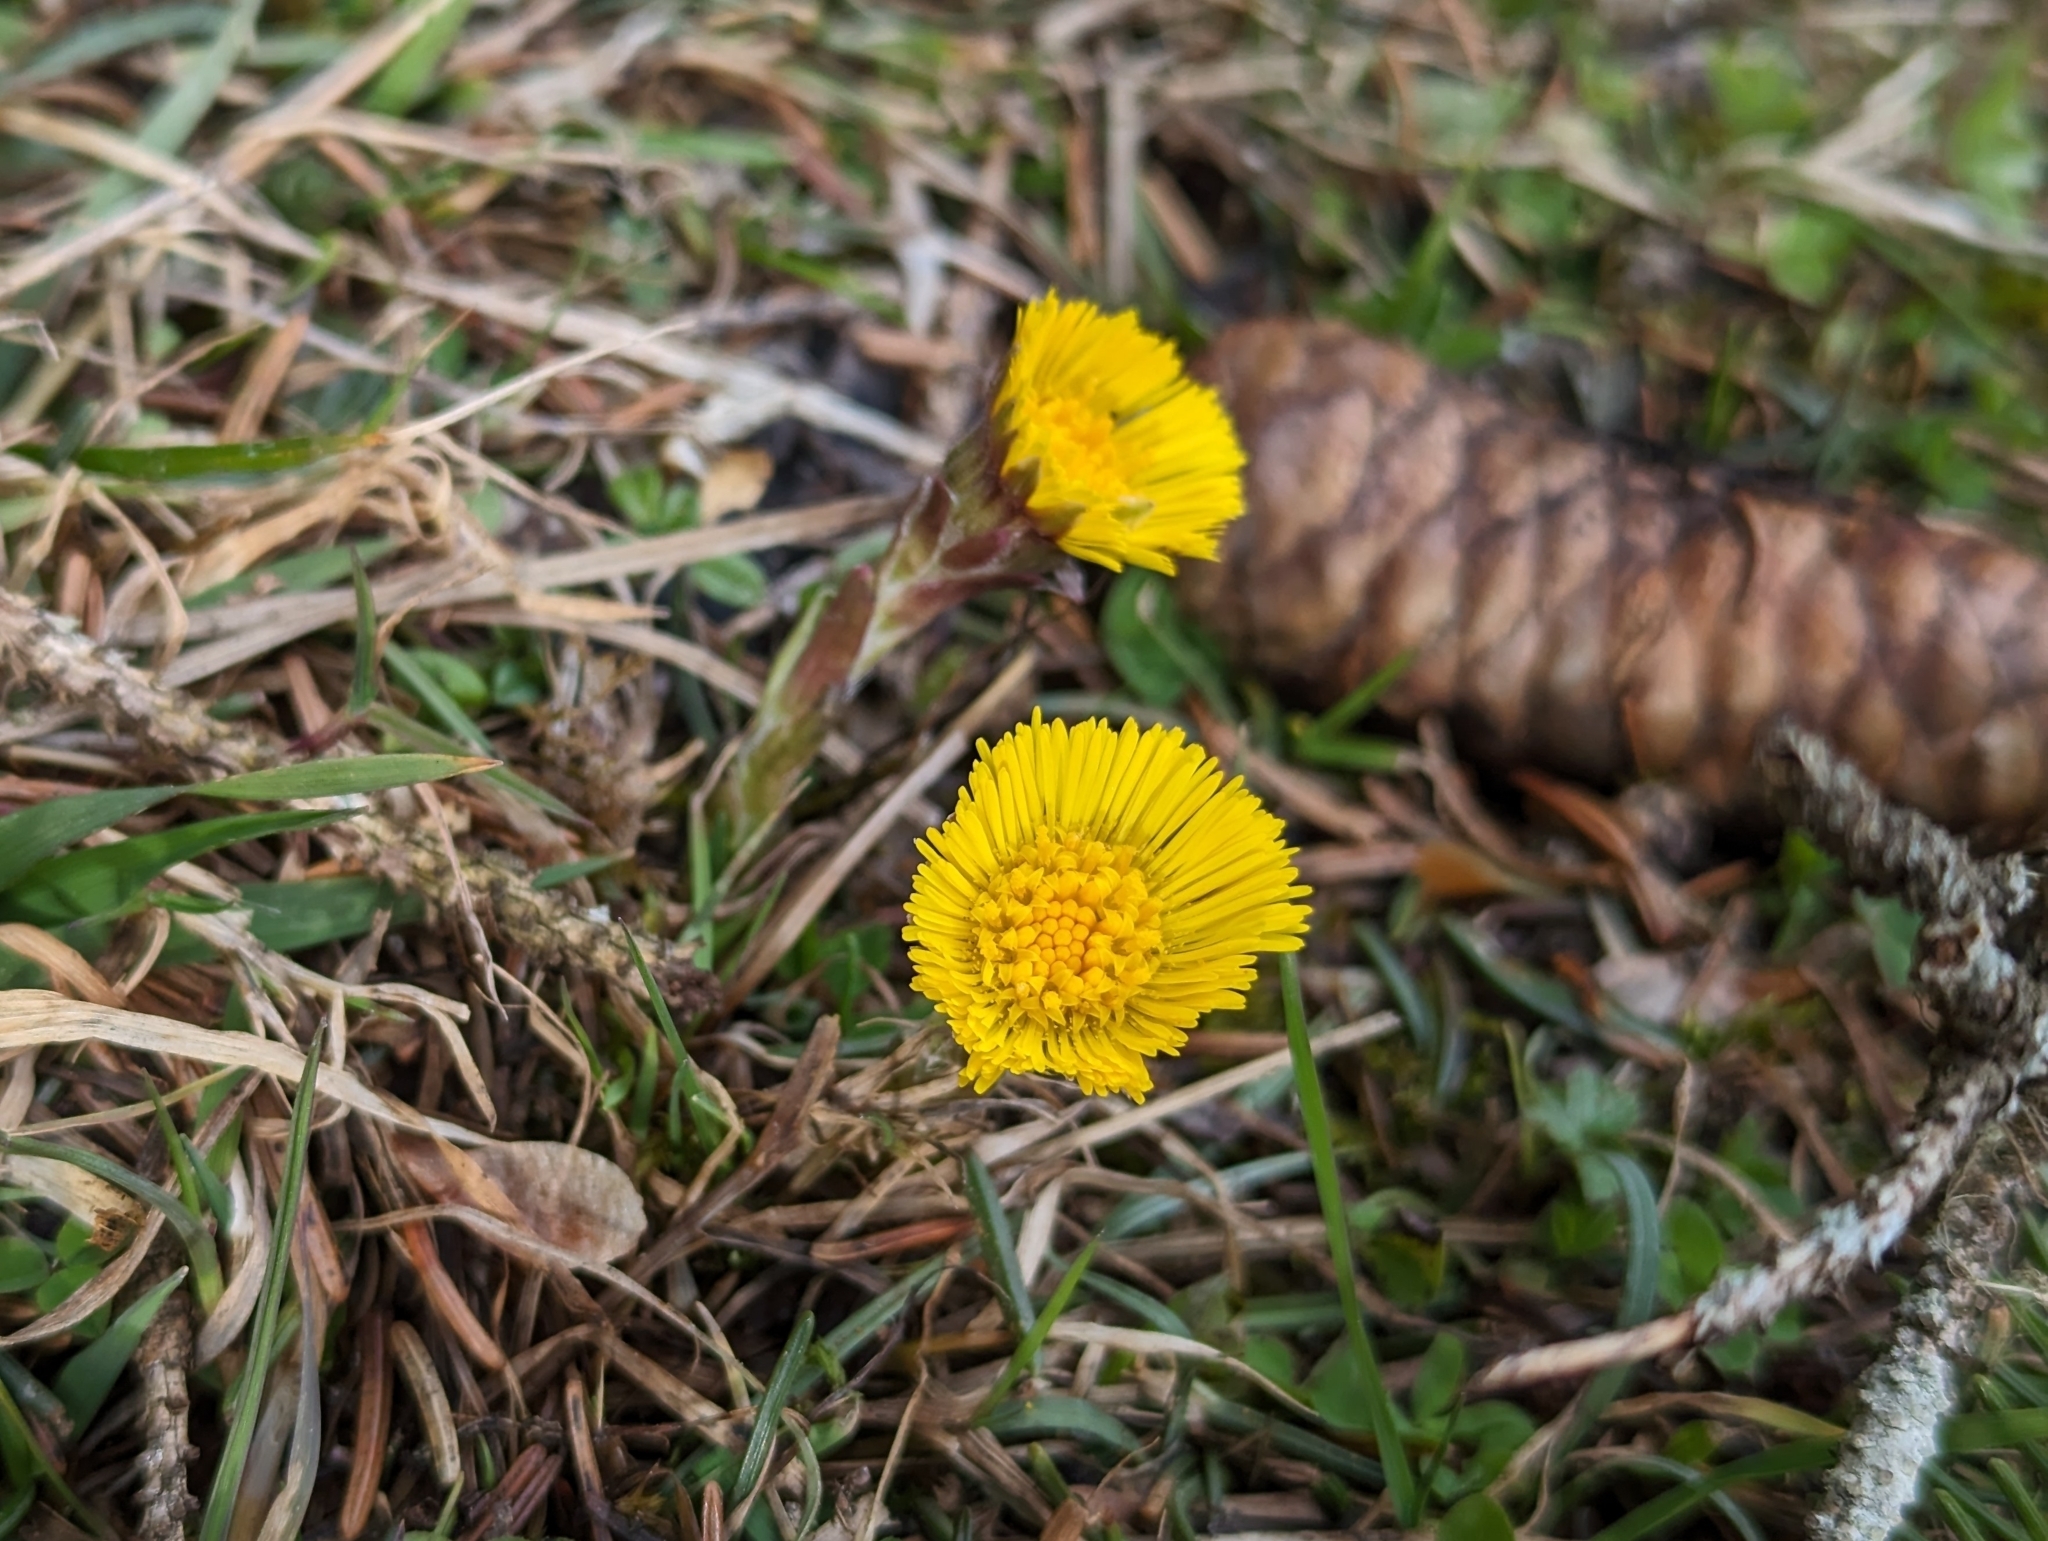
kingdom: Plantae
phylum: Tracheophyta
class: Magnoliopsida
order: Asterales
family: Asteraceae
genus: Tussilago
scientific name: Tussilago farfara
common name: Coltsfoot
